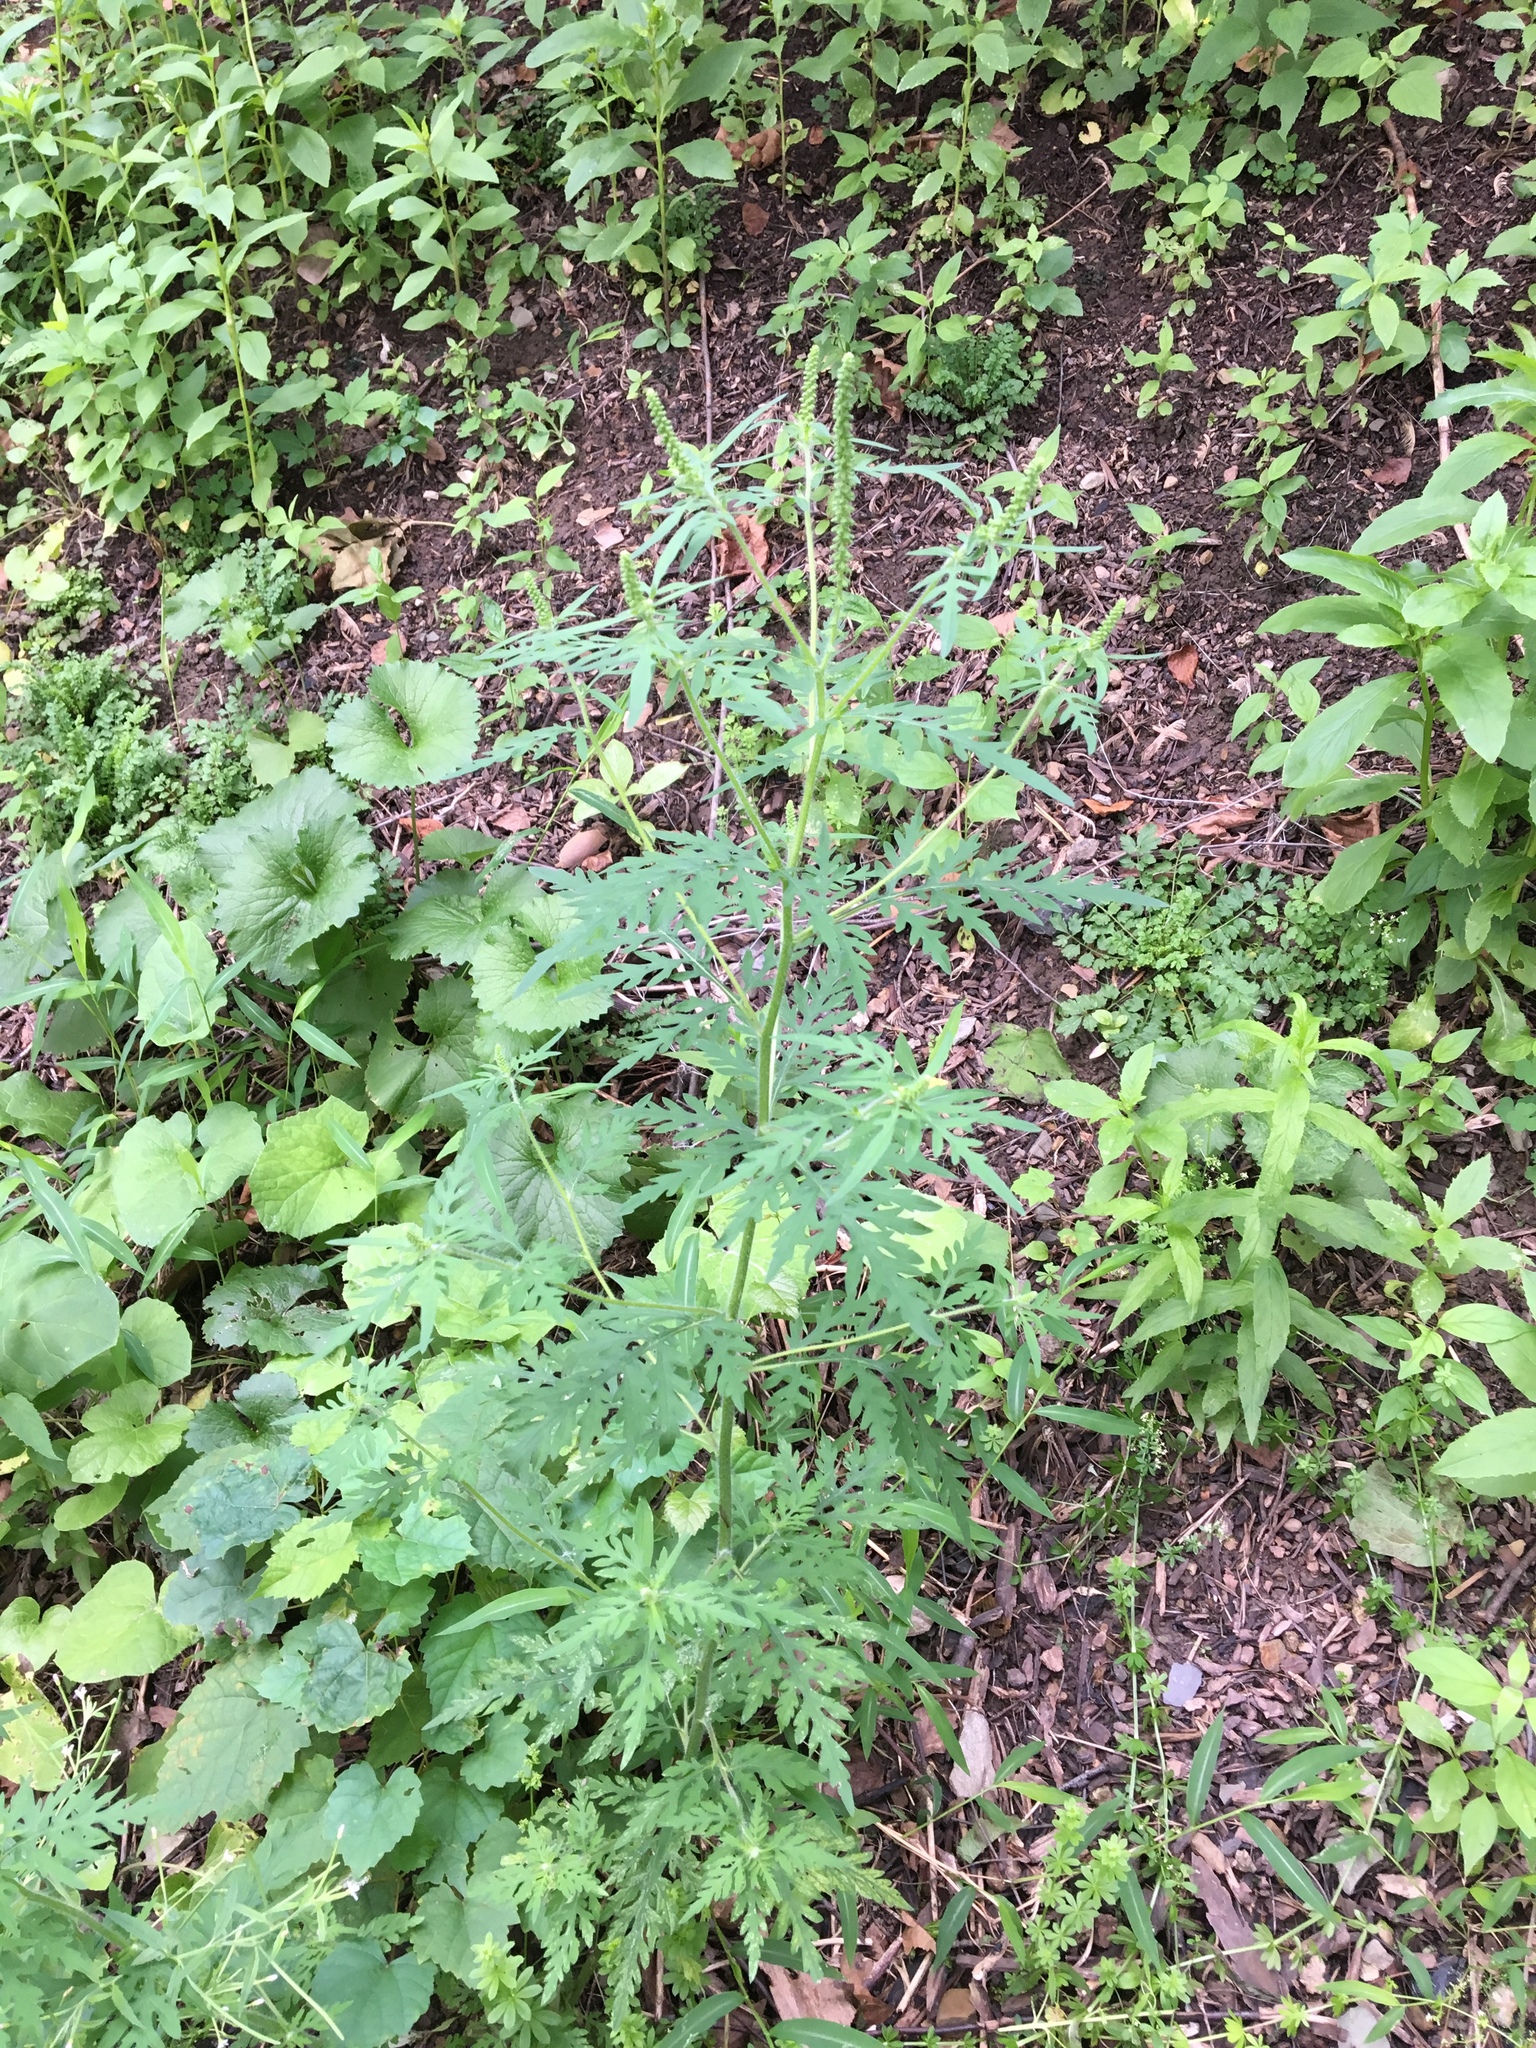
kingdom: Plantae
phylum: Tracheophyta
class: Magnoliopsida
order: Asterales
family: Asteraceae
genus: Ambrosia
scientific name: Ambrosia artemisiifolia
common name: Annual ragweed
